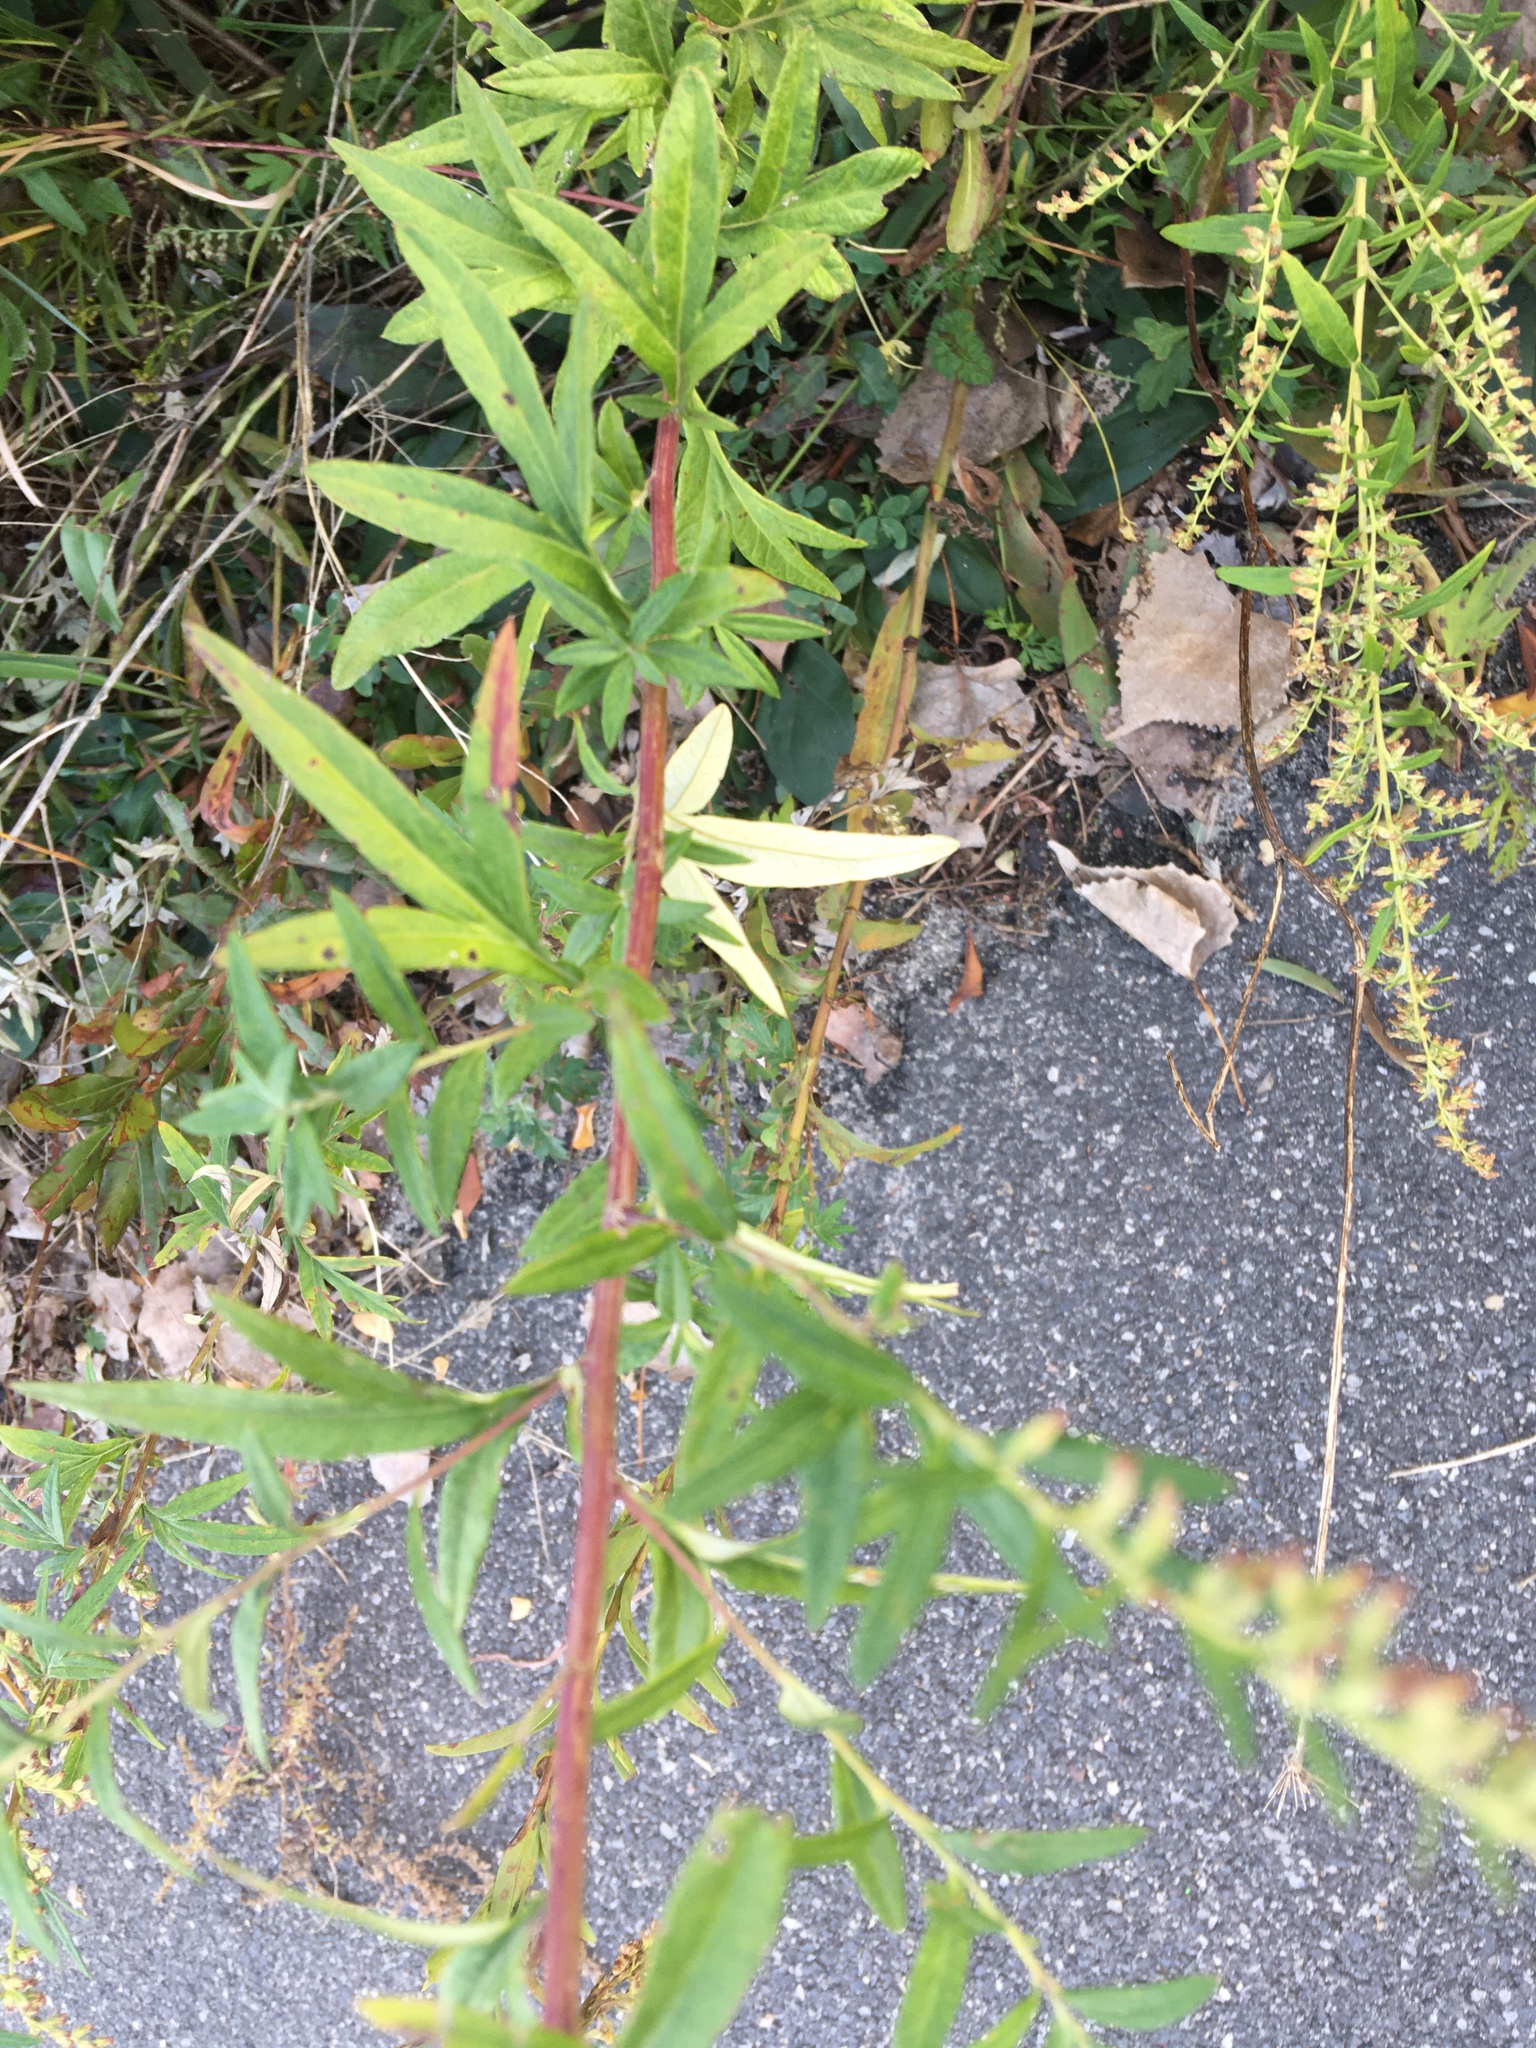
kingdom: Plantae
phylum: Tracheophyta
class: Magnoliopsida
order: Asterales
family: Asteraceae
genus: Artemisia
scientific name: Artemisia vulgaris
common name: Mugwort
